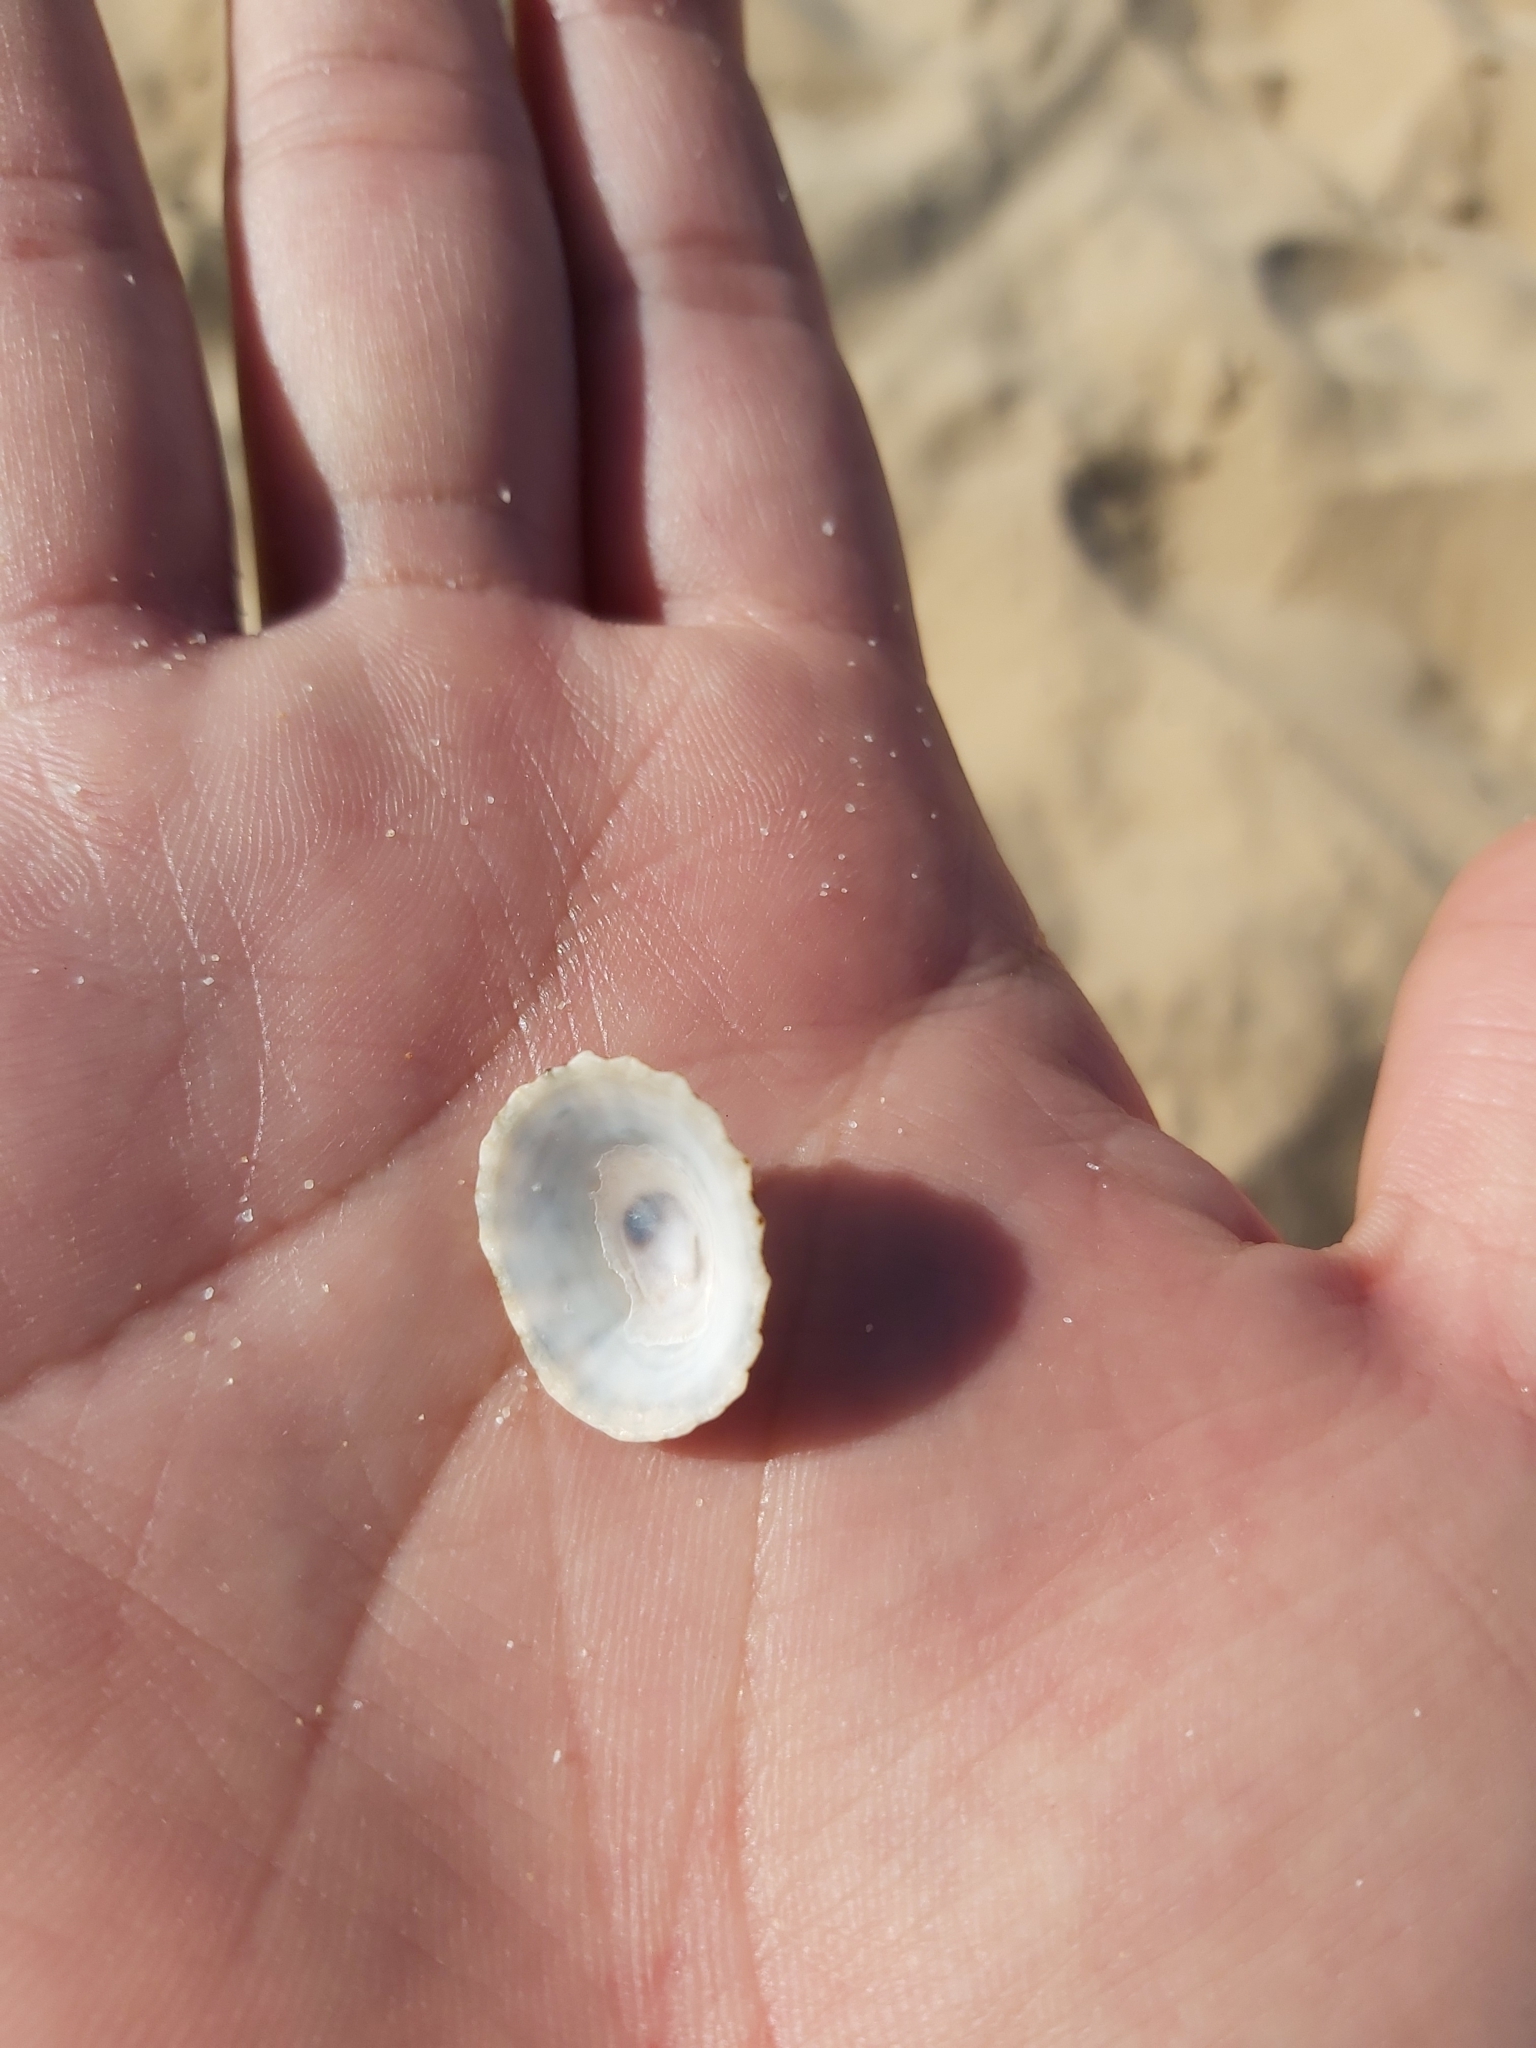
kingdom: Animalia
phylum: Mollusca
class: Gastropoda
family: Patellidae
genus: Scutellastra
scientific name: Scutellastra peronii
